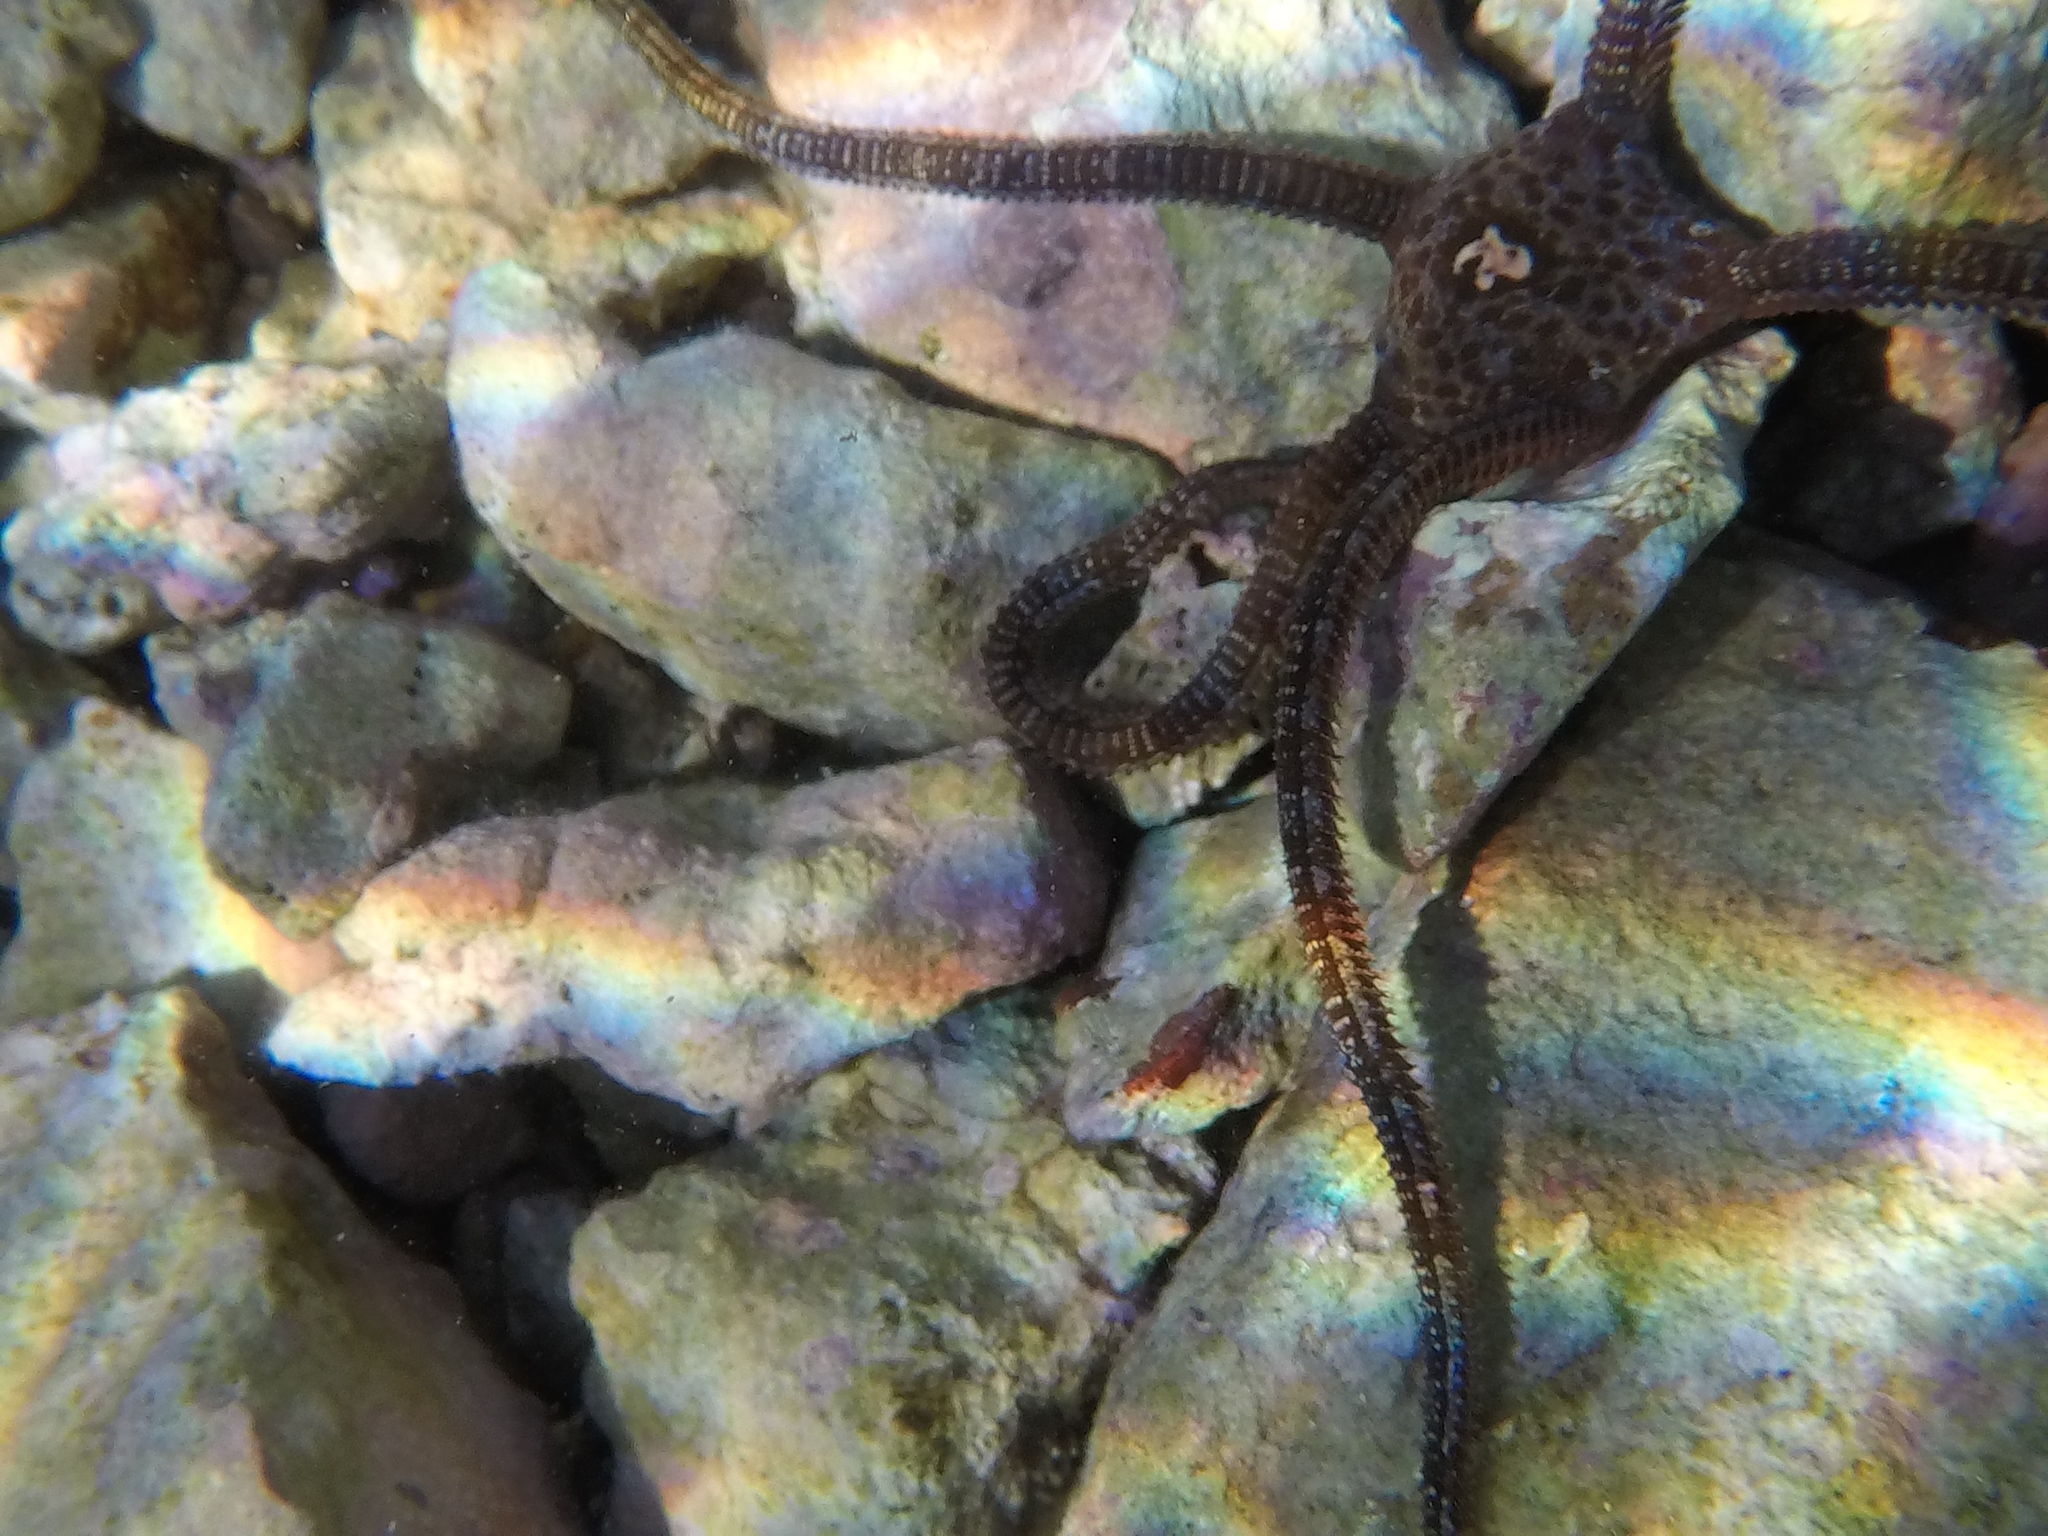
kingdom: Animalia
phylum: Echinodermata
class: Ophiuroidea
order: Ophiacanthida
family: Ophiodermatidae
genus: Ophioderma
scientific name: Ophioderma longicaudum
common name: Smooth brittle-star
